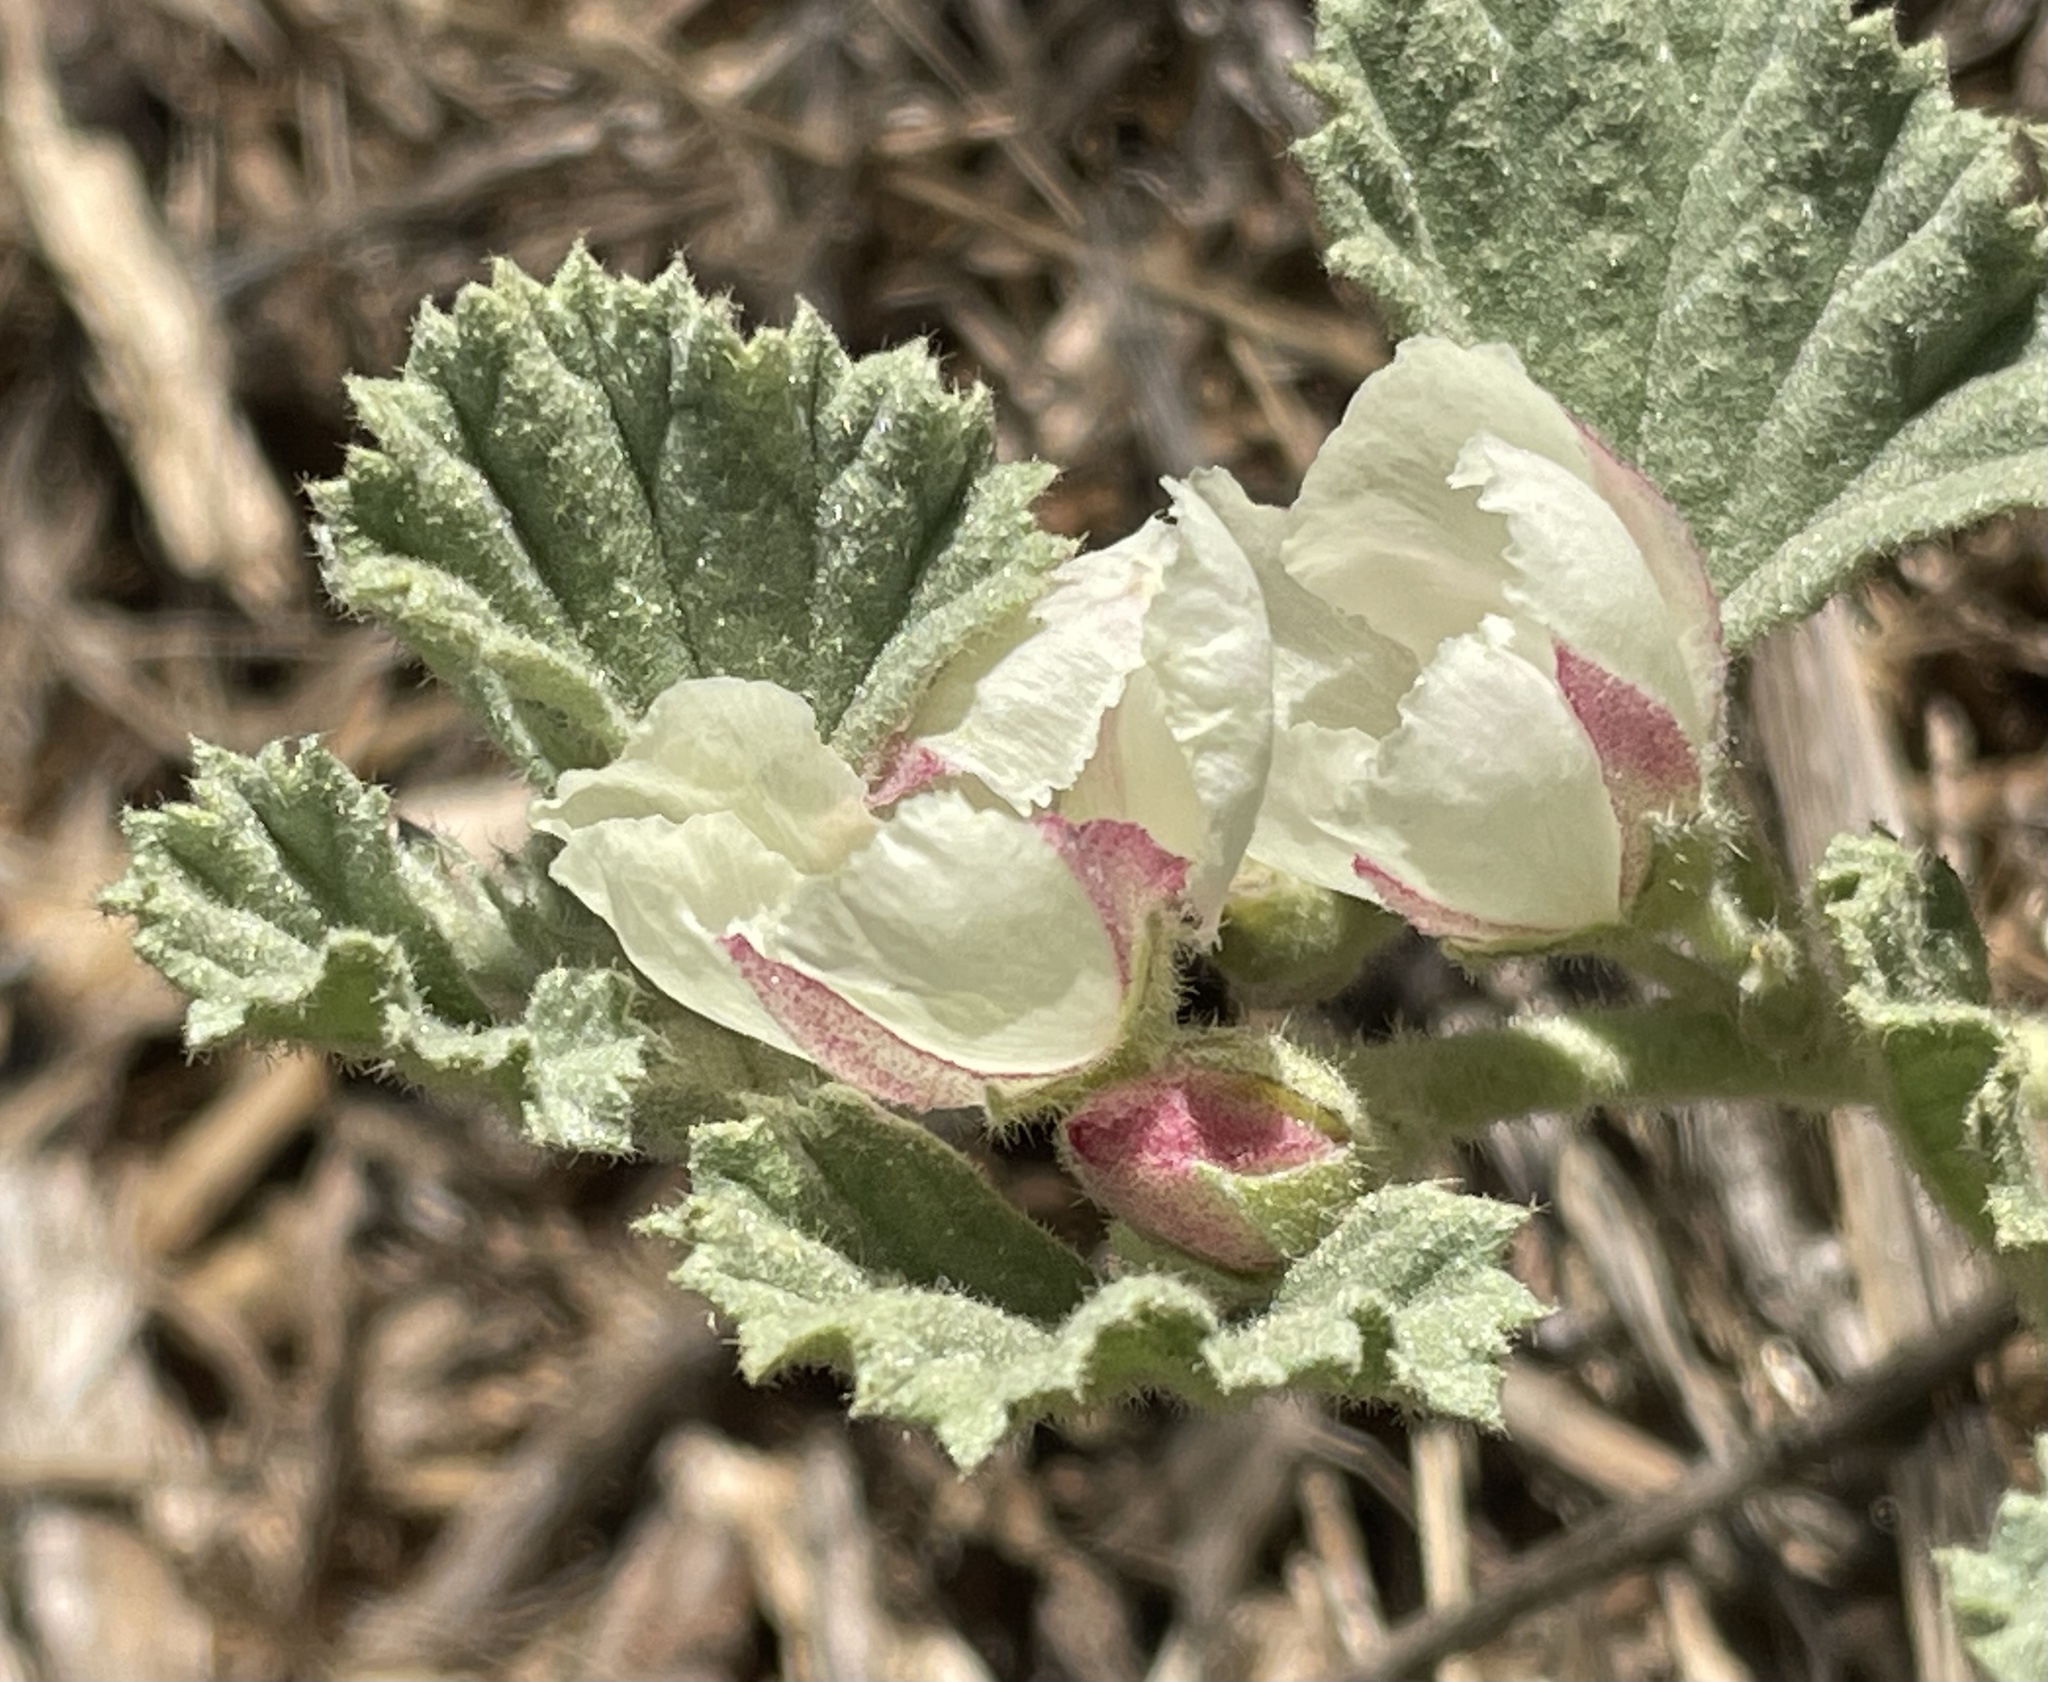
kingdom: Plantae
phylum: Tracheophyta
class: Magnoliopsida
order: Malvales
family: Malvaceae
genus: Malvella
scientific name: Malvella leprosa
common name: Alkali-mallow
